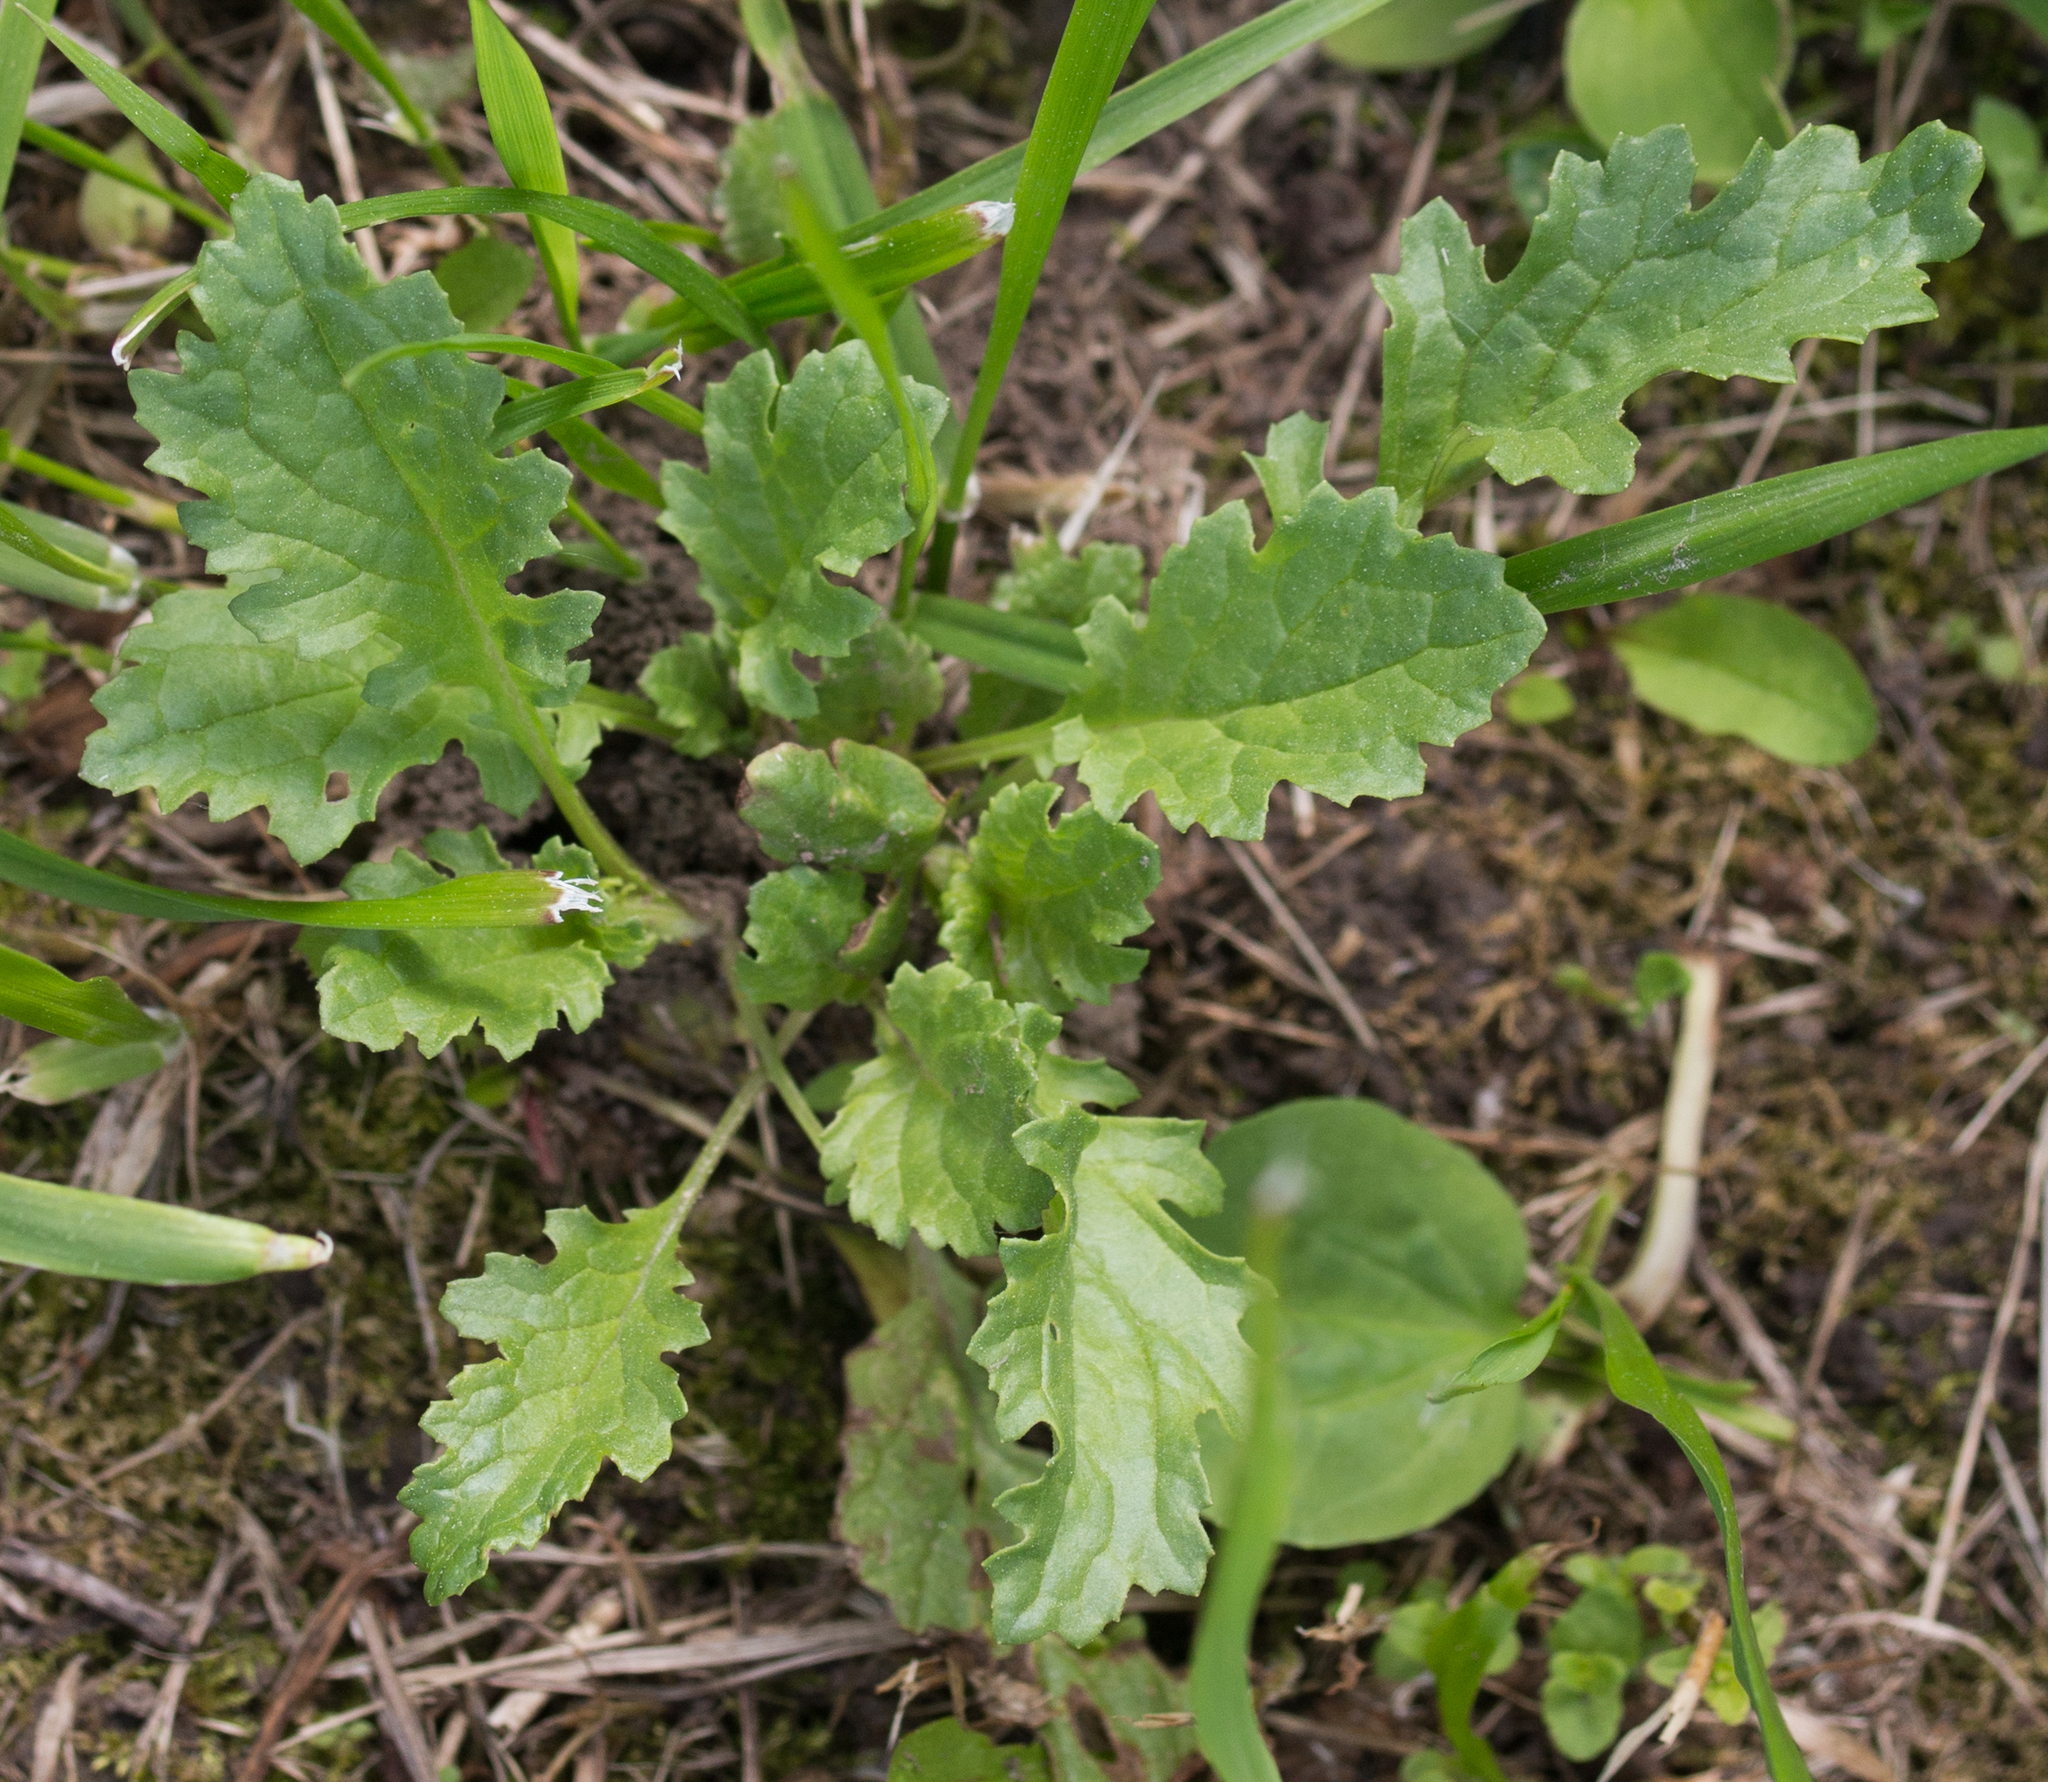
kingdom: Plantae
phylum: Tracheophyta
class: Magnoliopsida
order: Asterales
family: Asteraceae
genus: Jacobaea
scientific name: Jacobaea vulgaris
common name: Stinking willie
